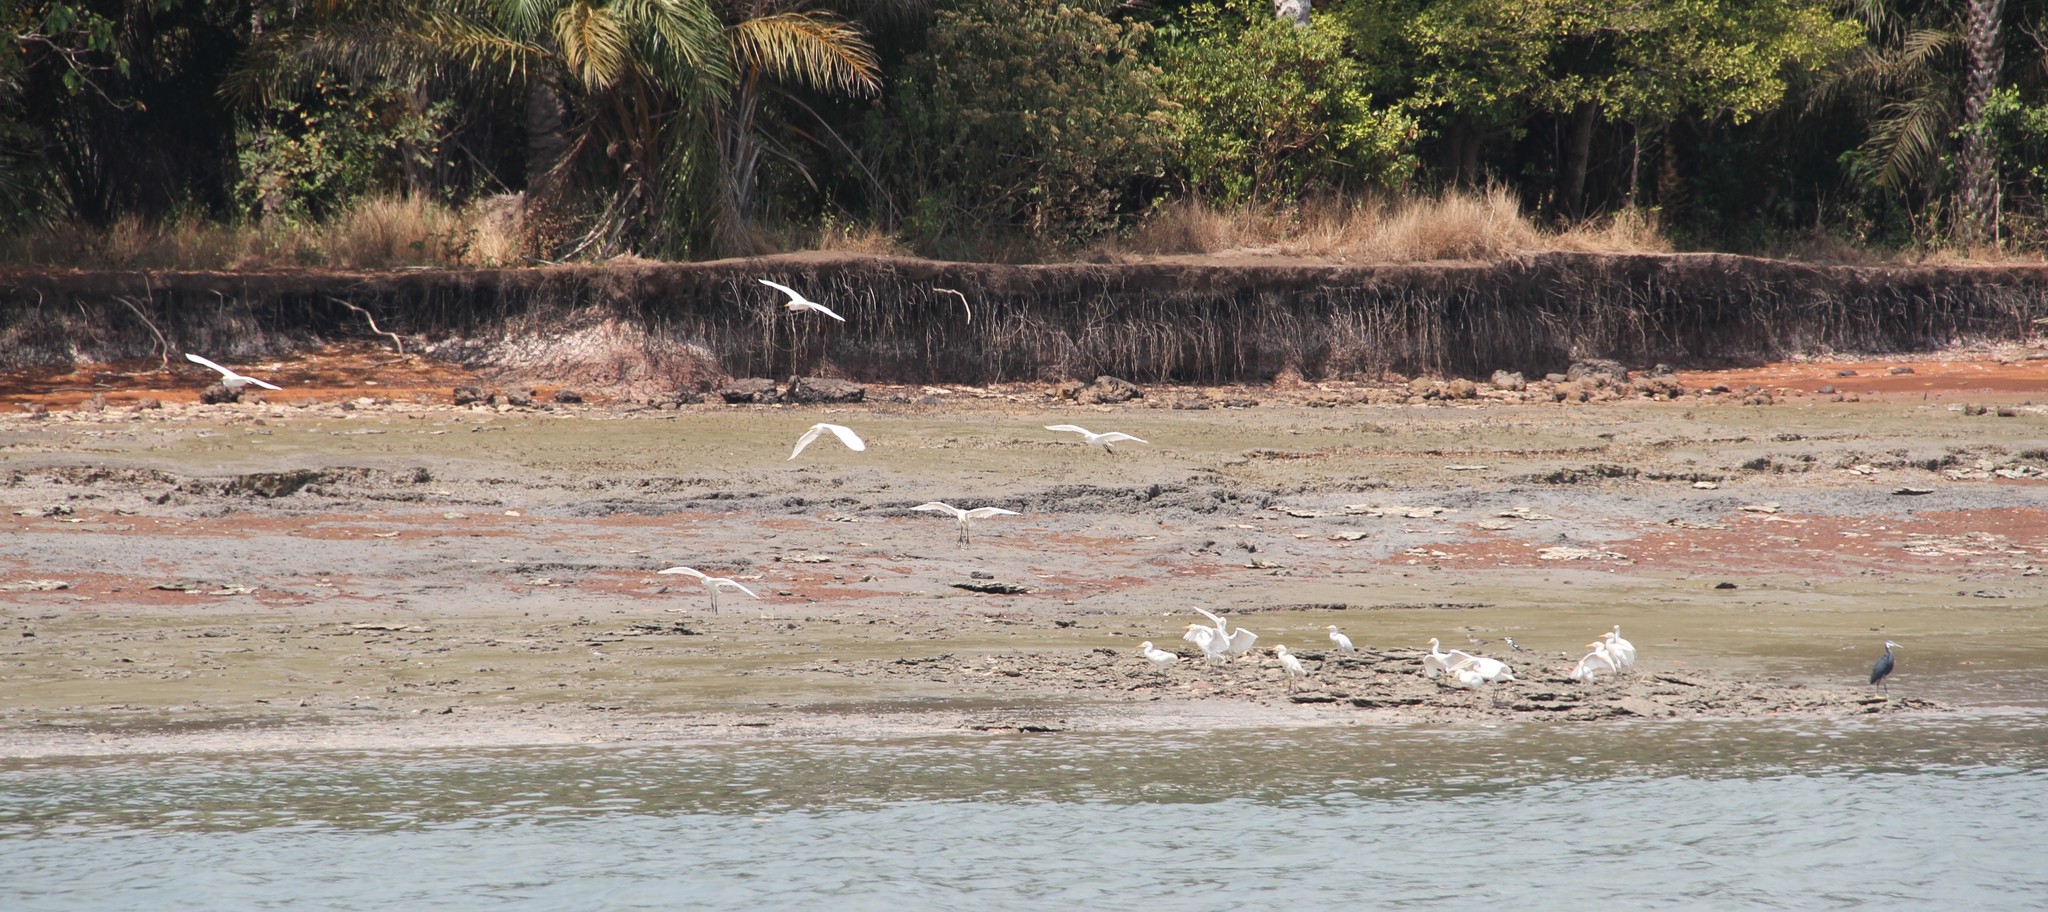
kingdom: Animalia
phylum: Chordata
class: Aves
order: Pelecaniformes
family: Ardeidae
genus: Bubulcus
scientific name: Bubulcus ibis
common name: Cattle egret
